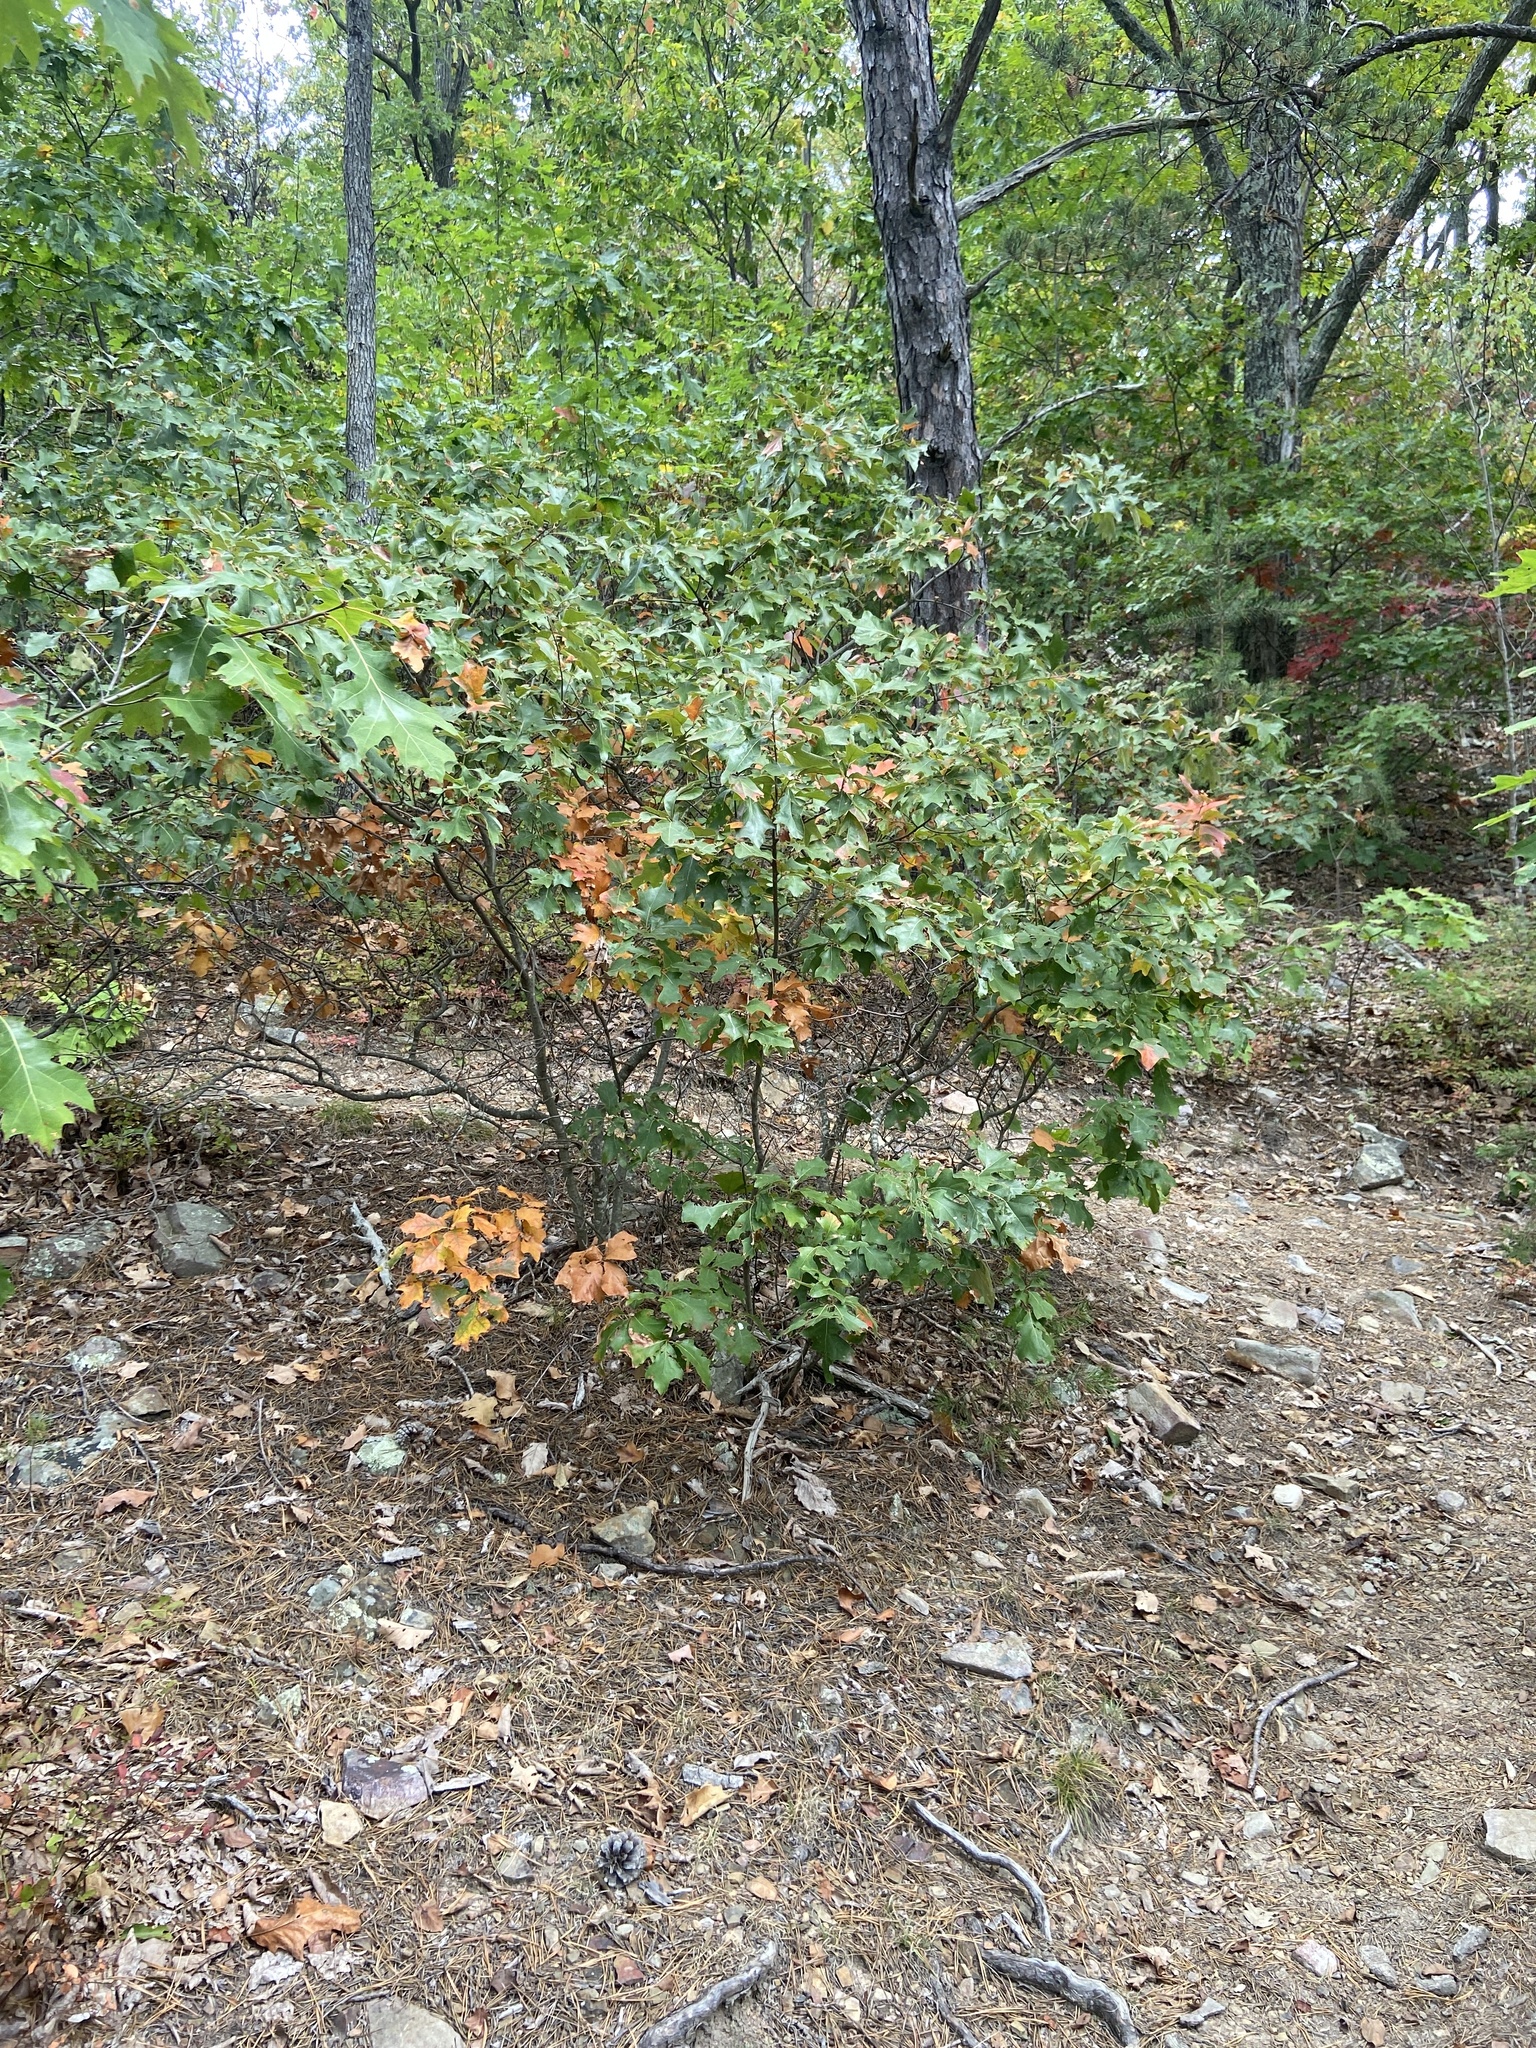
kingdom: Plantae
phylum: Tracheophyta
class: Magnoliopsida
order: Fagales
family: Fagaceae
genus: Quercus
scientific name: Quercus ilicifolia
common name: Bear oak
